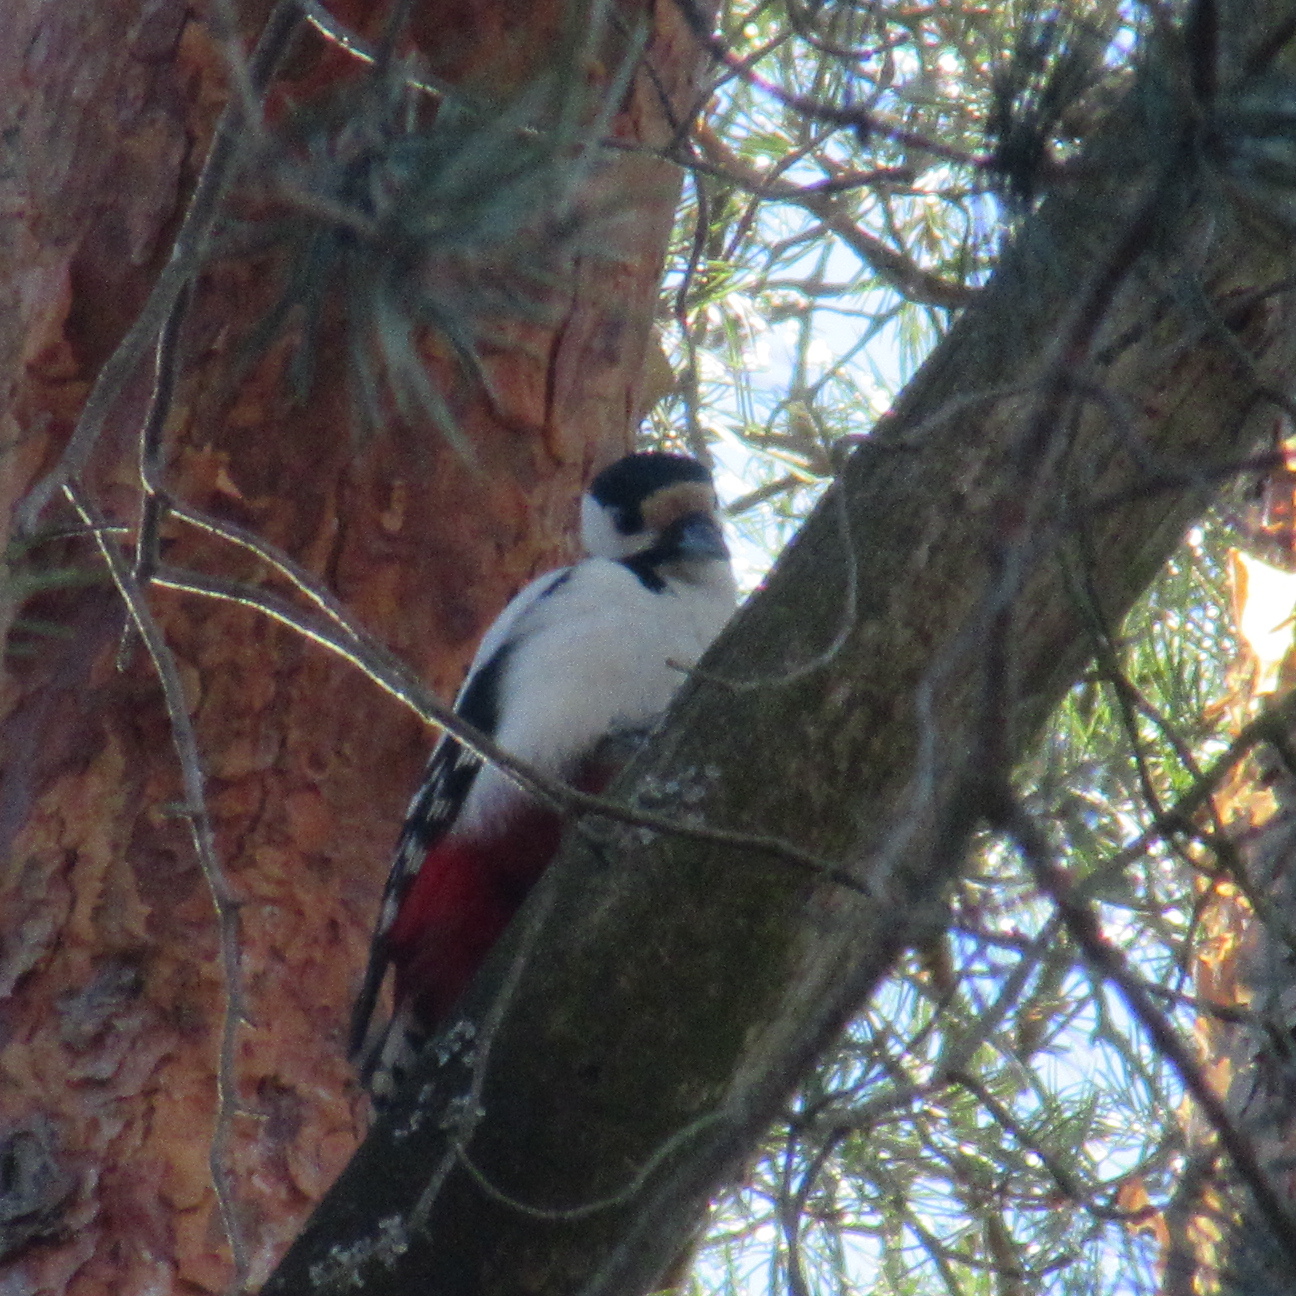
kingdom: Animalia
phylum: Chordata
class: Aves
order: Piciformes
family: Picidae
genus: Dendrocopos
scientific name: Dendrocopos major
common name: Great spotted woodpecker
